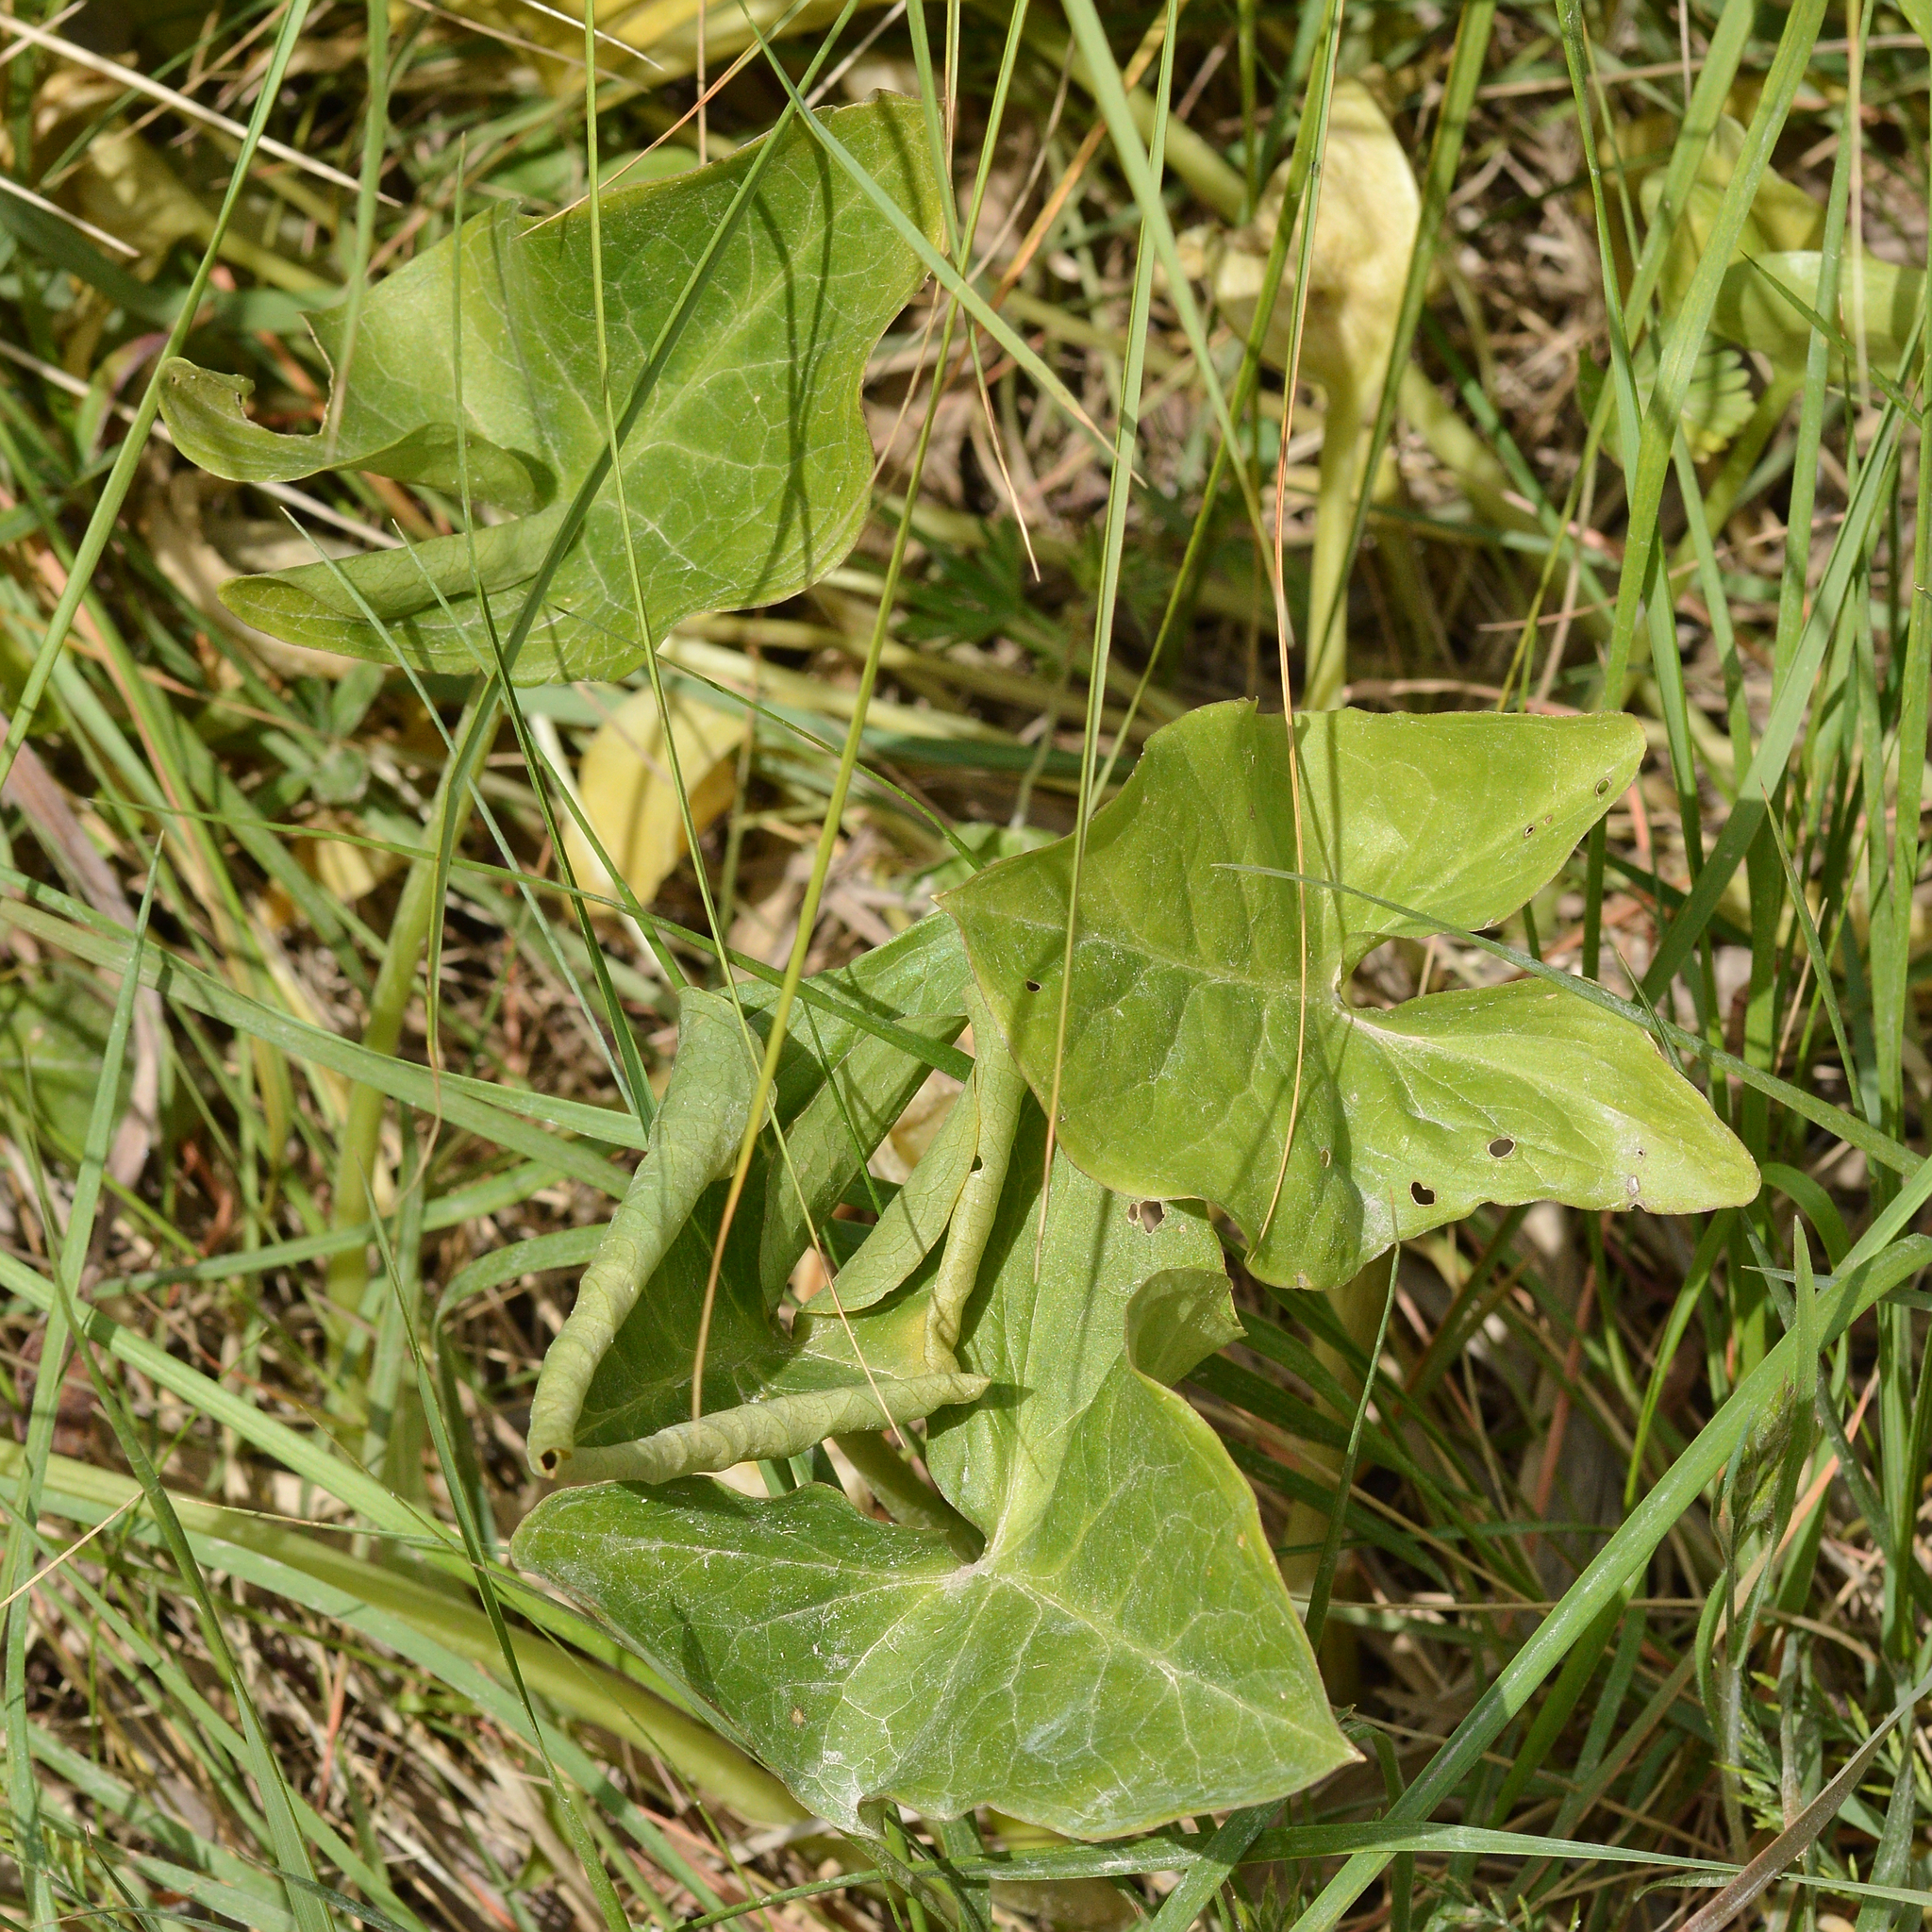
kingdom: Plantae
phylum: Tracheophyta
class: Liliopsida
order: Alismatales
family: Araceae
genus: Arum
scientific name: Arum italicum
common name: Italian lords-and-ladies
